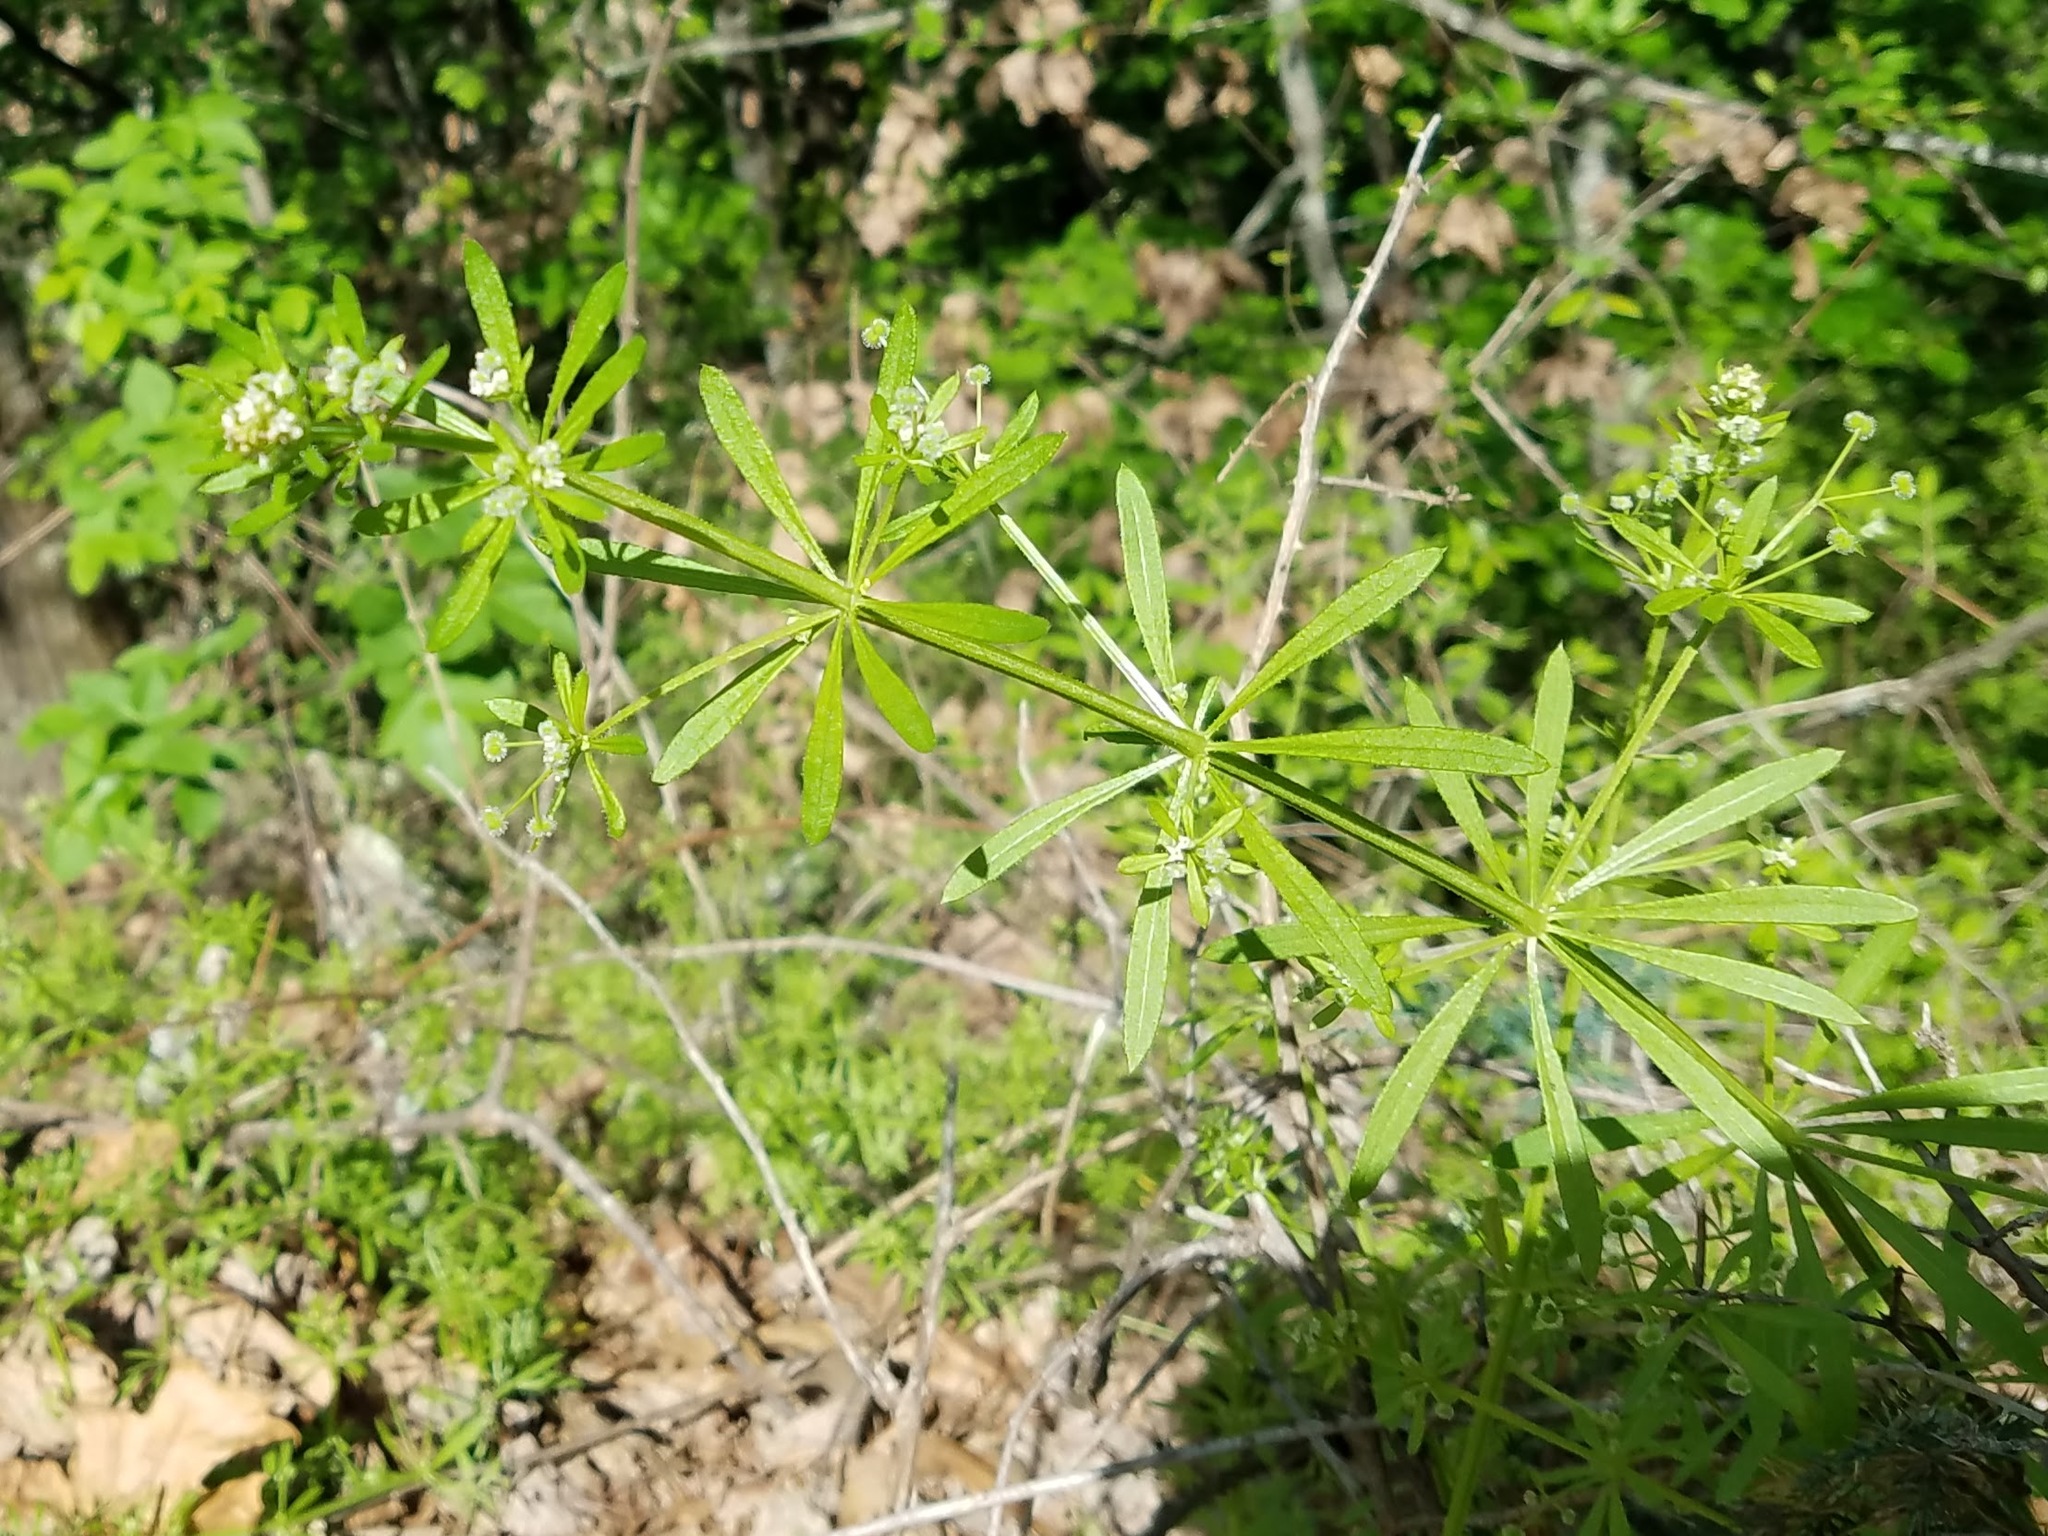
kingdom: Plantae
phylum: Tracheophyta
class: Magnoliopsida
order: Gentianales
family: Rubiaceae
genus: Galium
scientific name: Galium aparine
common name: Cleavers
